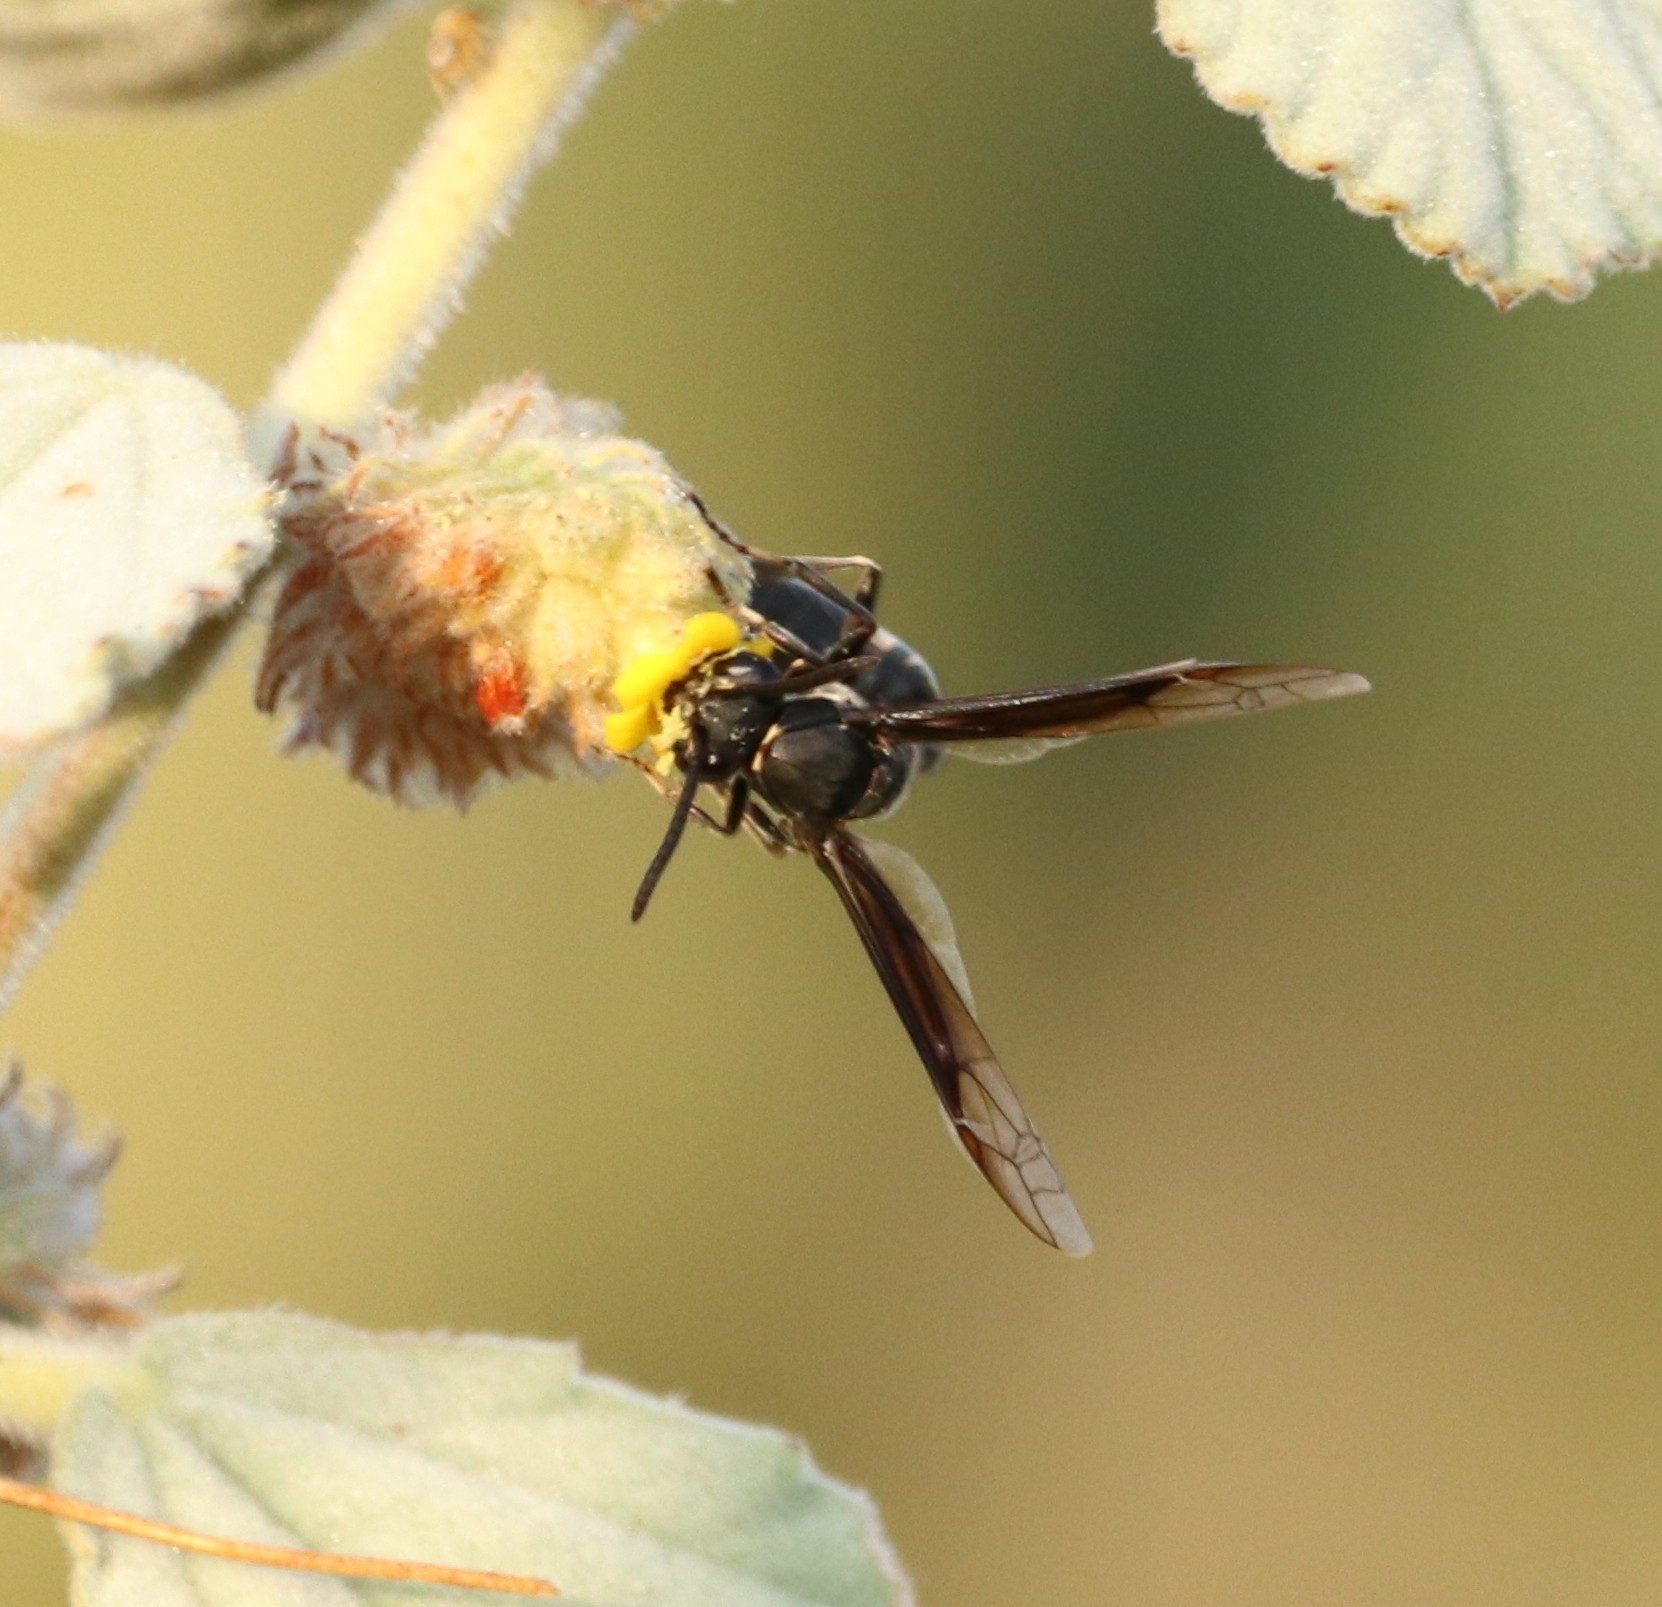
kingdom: Animalia
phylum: Arthropoda
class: Insecta
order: Hymenoptera
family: Eumenidae
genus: Polybia
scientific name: Polybia ignobilis
